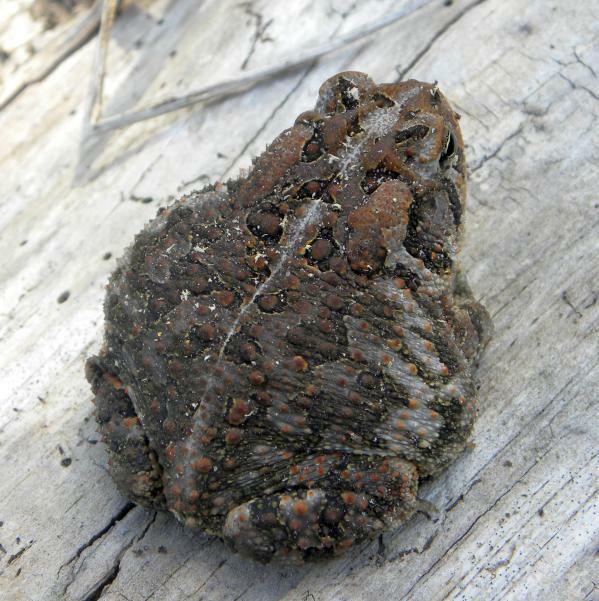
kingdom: Animalia
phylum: Chordata
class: Amphibia
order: Anura
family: Bufonidae
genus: Anaxyrus
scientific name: Anaxyrus terrestris
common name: Southern toad
